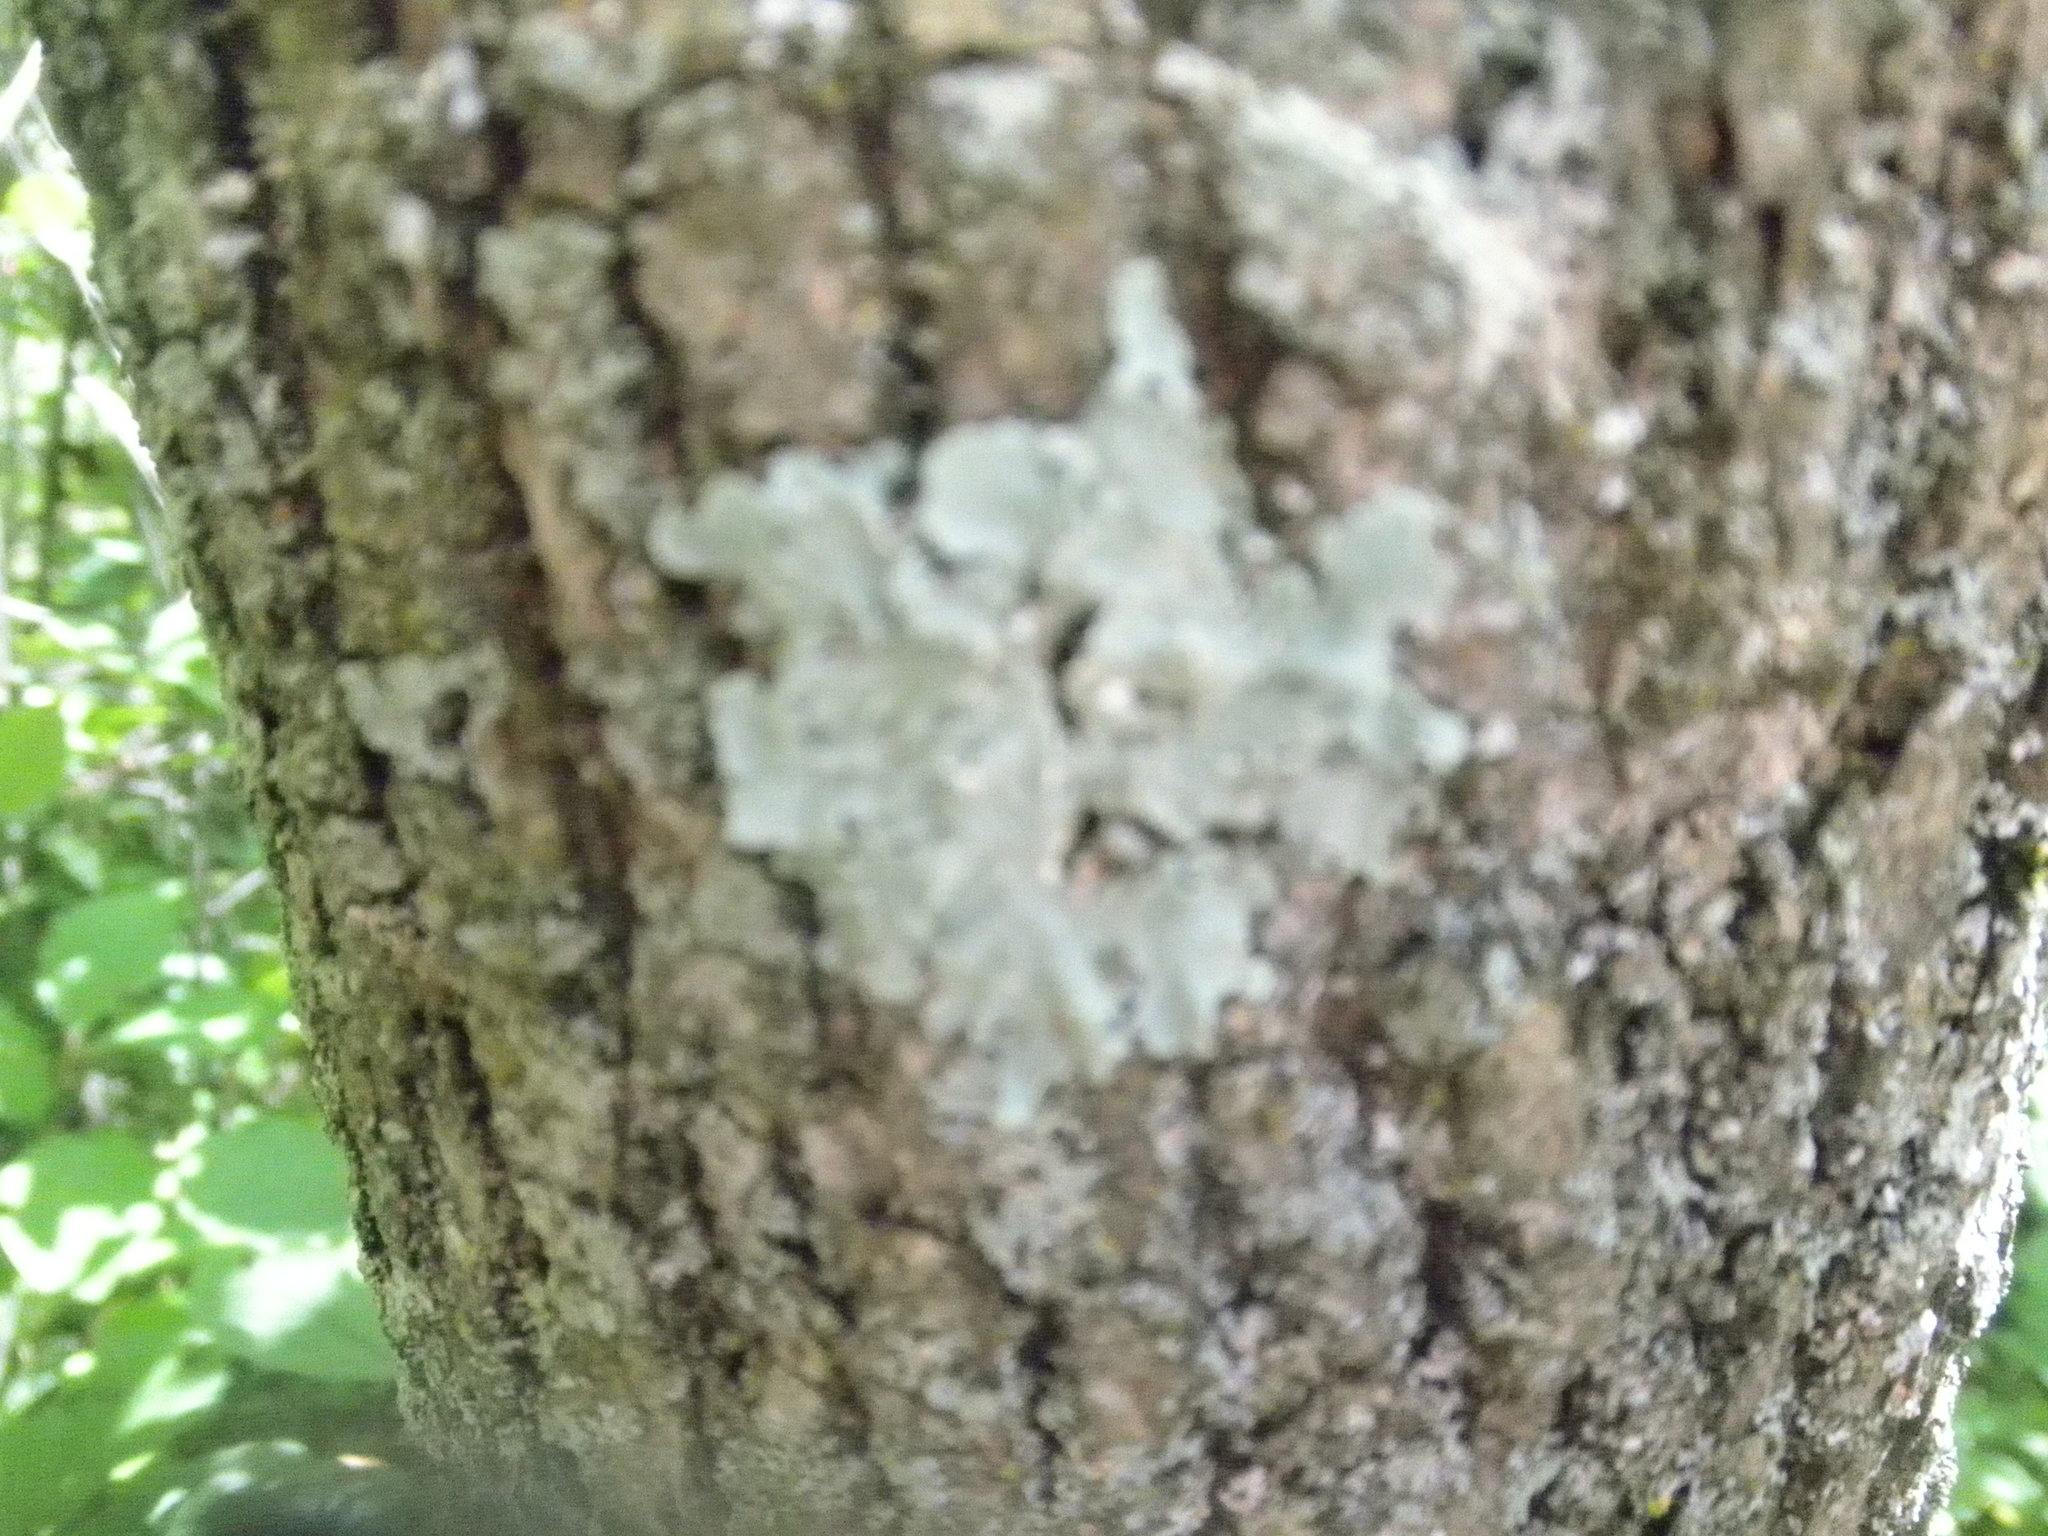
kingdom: Fungi
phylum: Ascomycota
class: Lecanoromycetes
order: Lecanorales
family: Parmeliaceae
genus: Flavoparmelia
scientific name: Flavoparmelia caperata
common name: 40-mile per hour lichen
